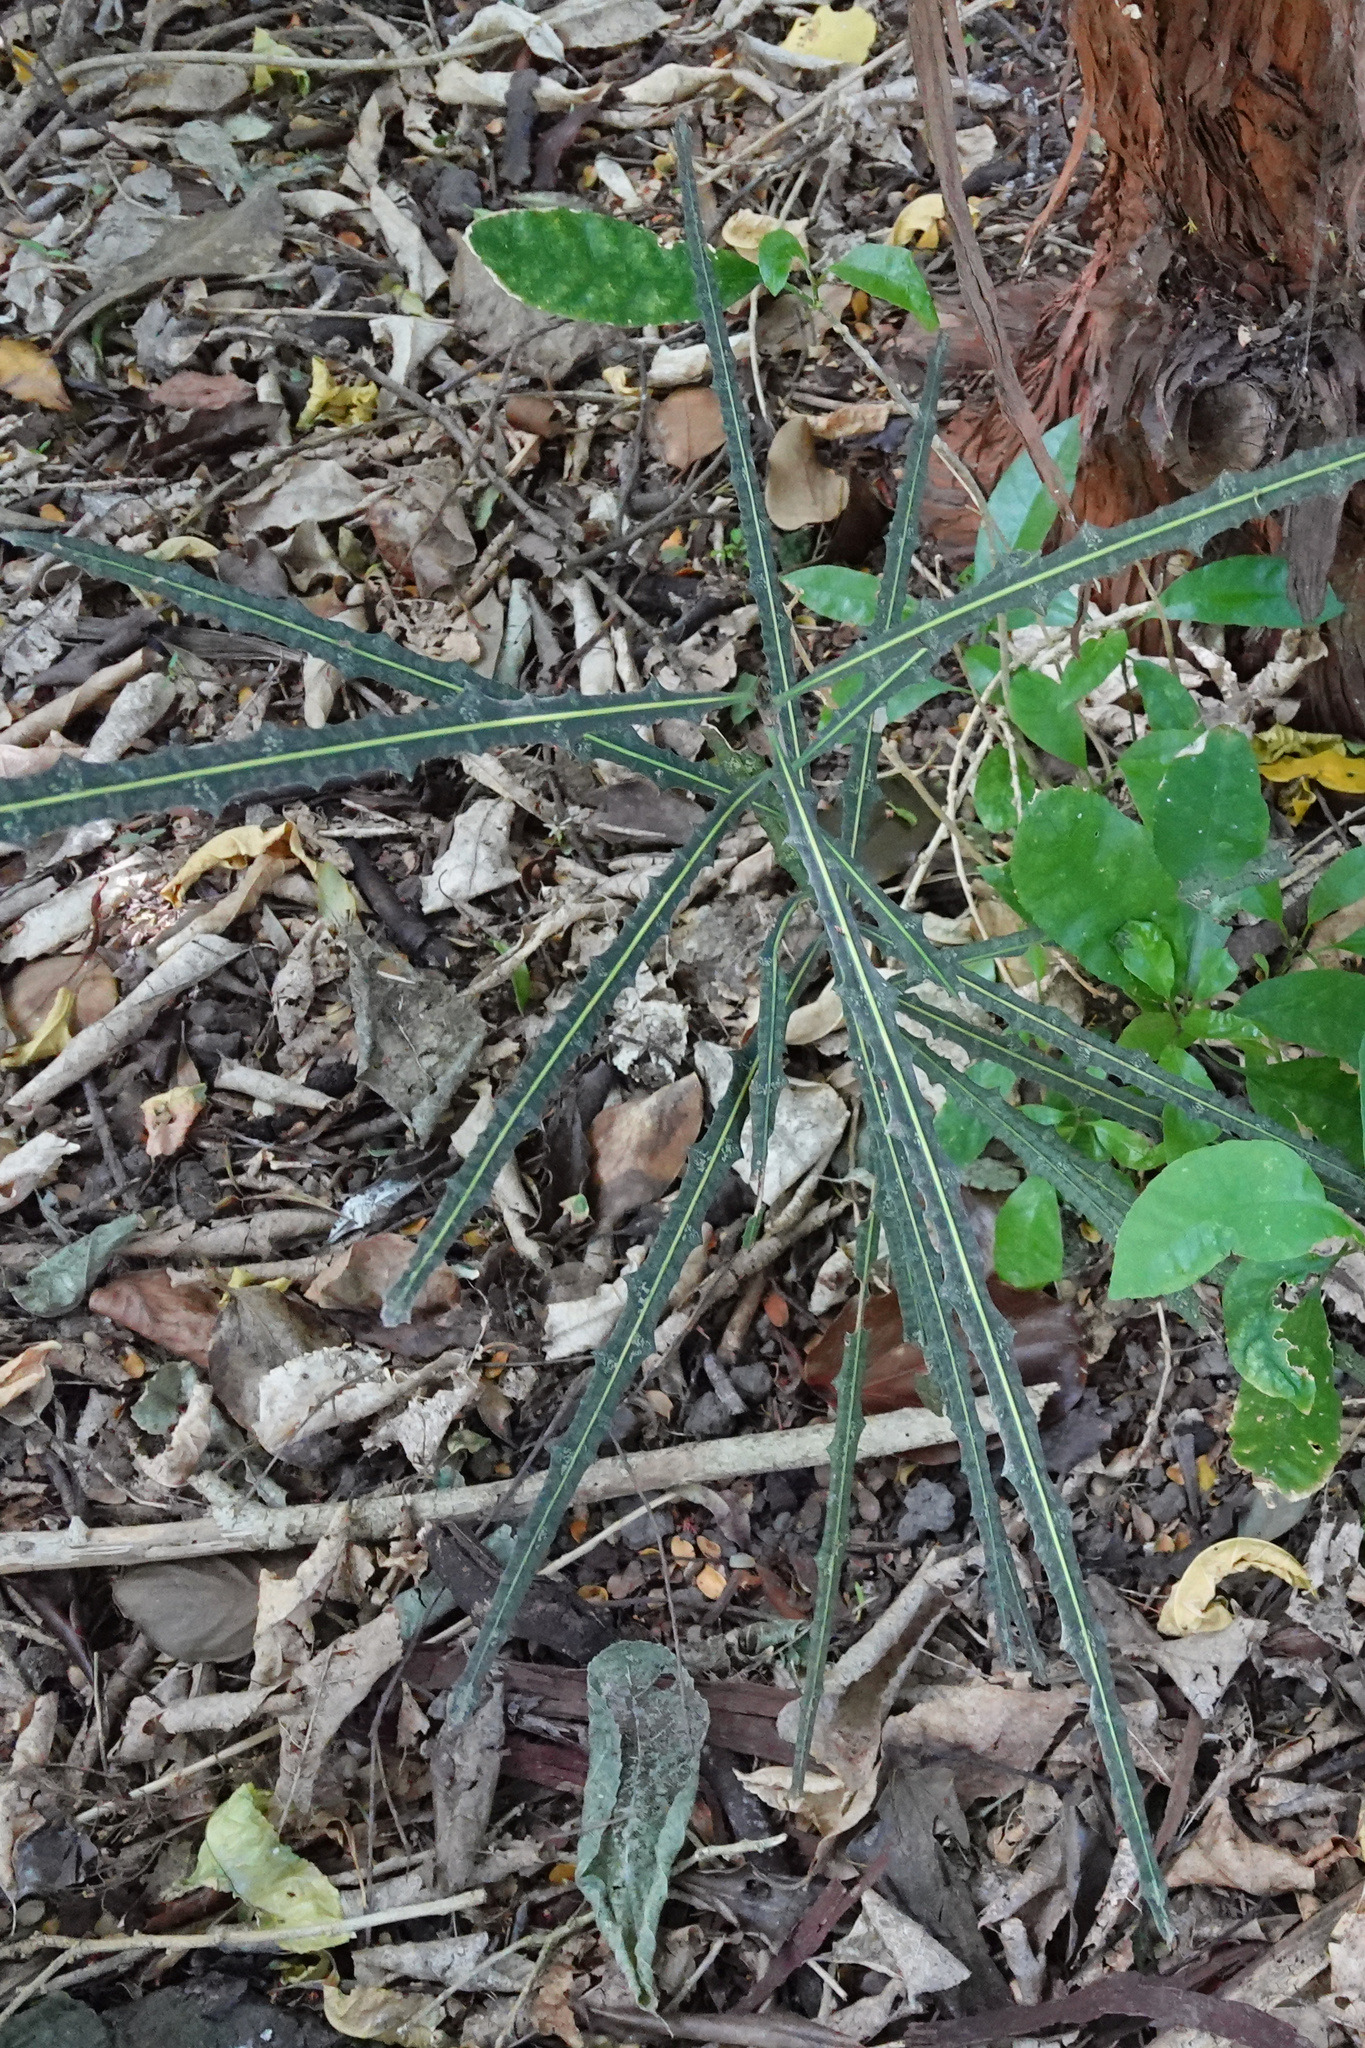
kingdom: Plantae
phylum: Tracheophyta
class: Magnoliopsida
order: Apiales
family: Araliaceae
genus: Pseudopanax
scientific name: Pseudopanax ferox
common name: Fierce lancewood
